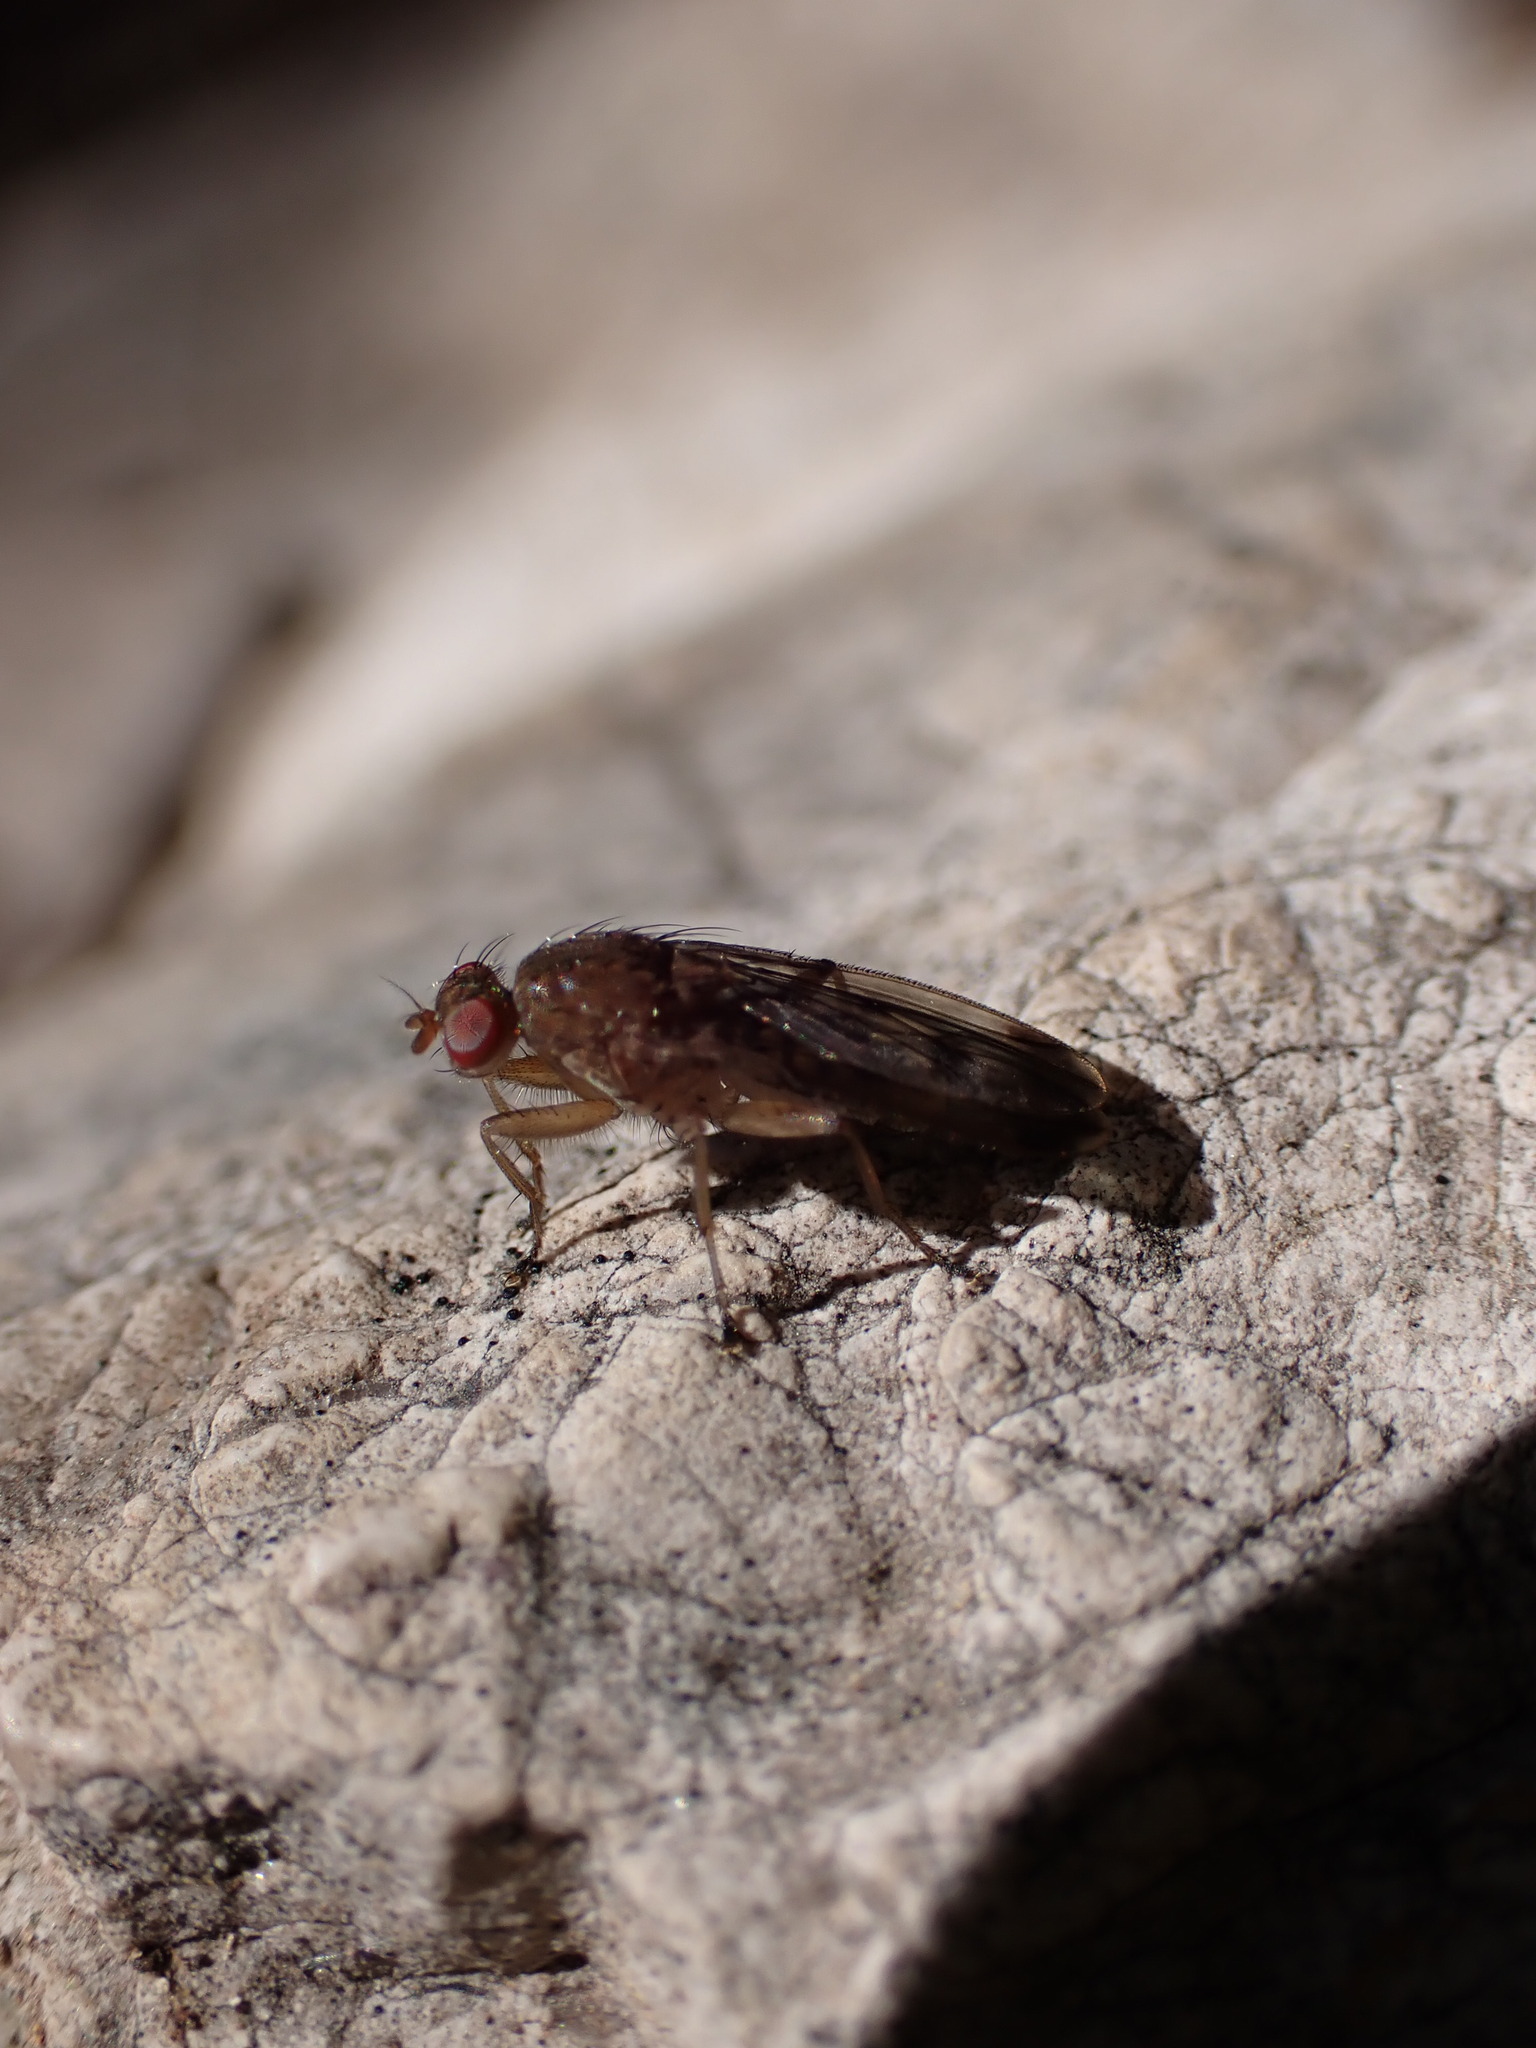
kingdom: Animalia
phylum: Arthropoda
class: Insecta
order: Diptera
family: Heleomyzidae
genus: Suillia
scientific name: Suillia variegata
